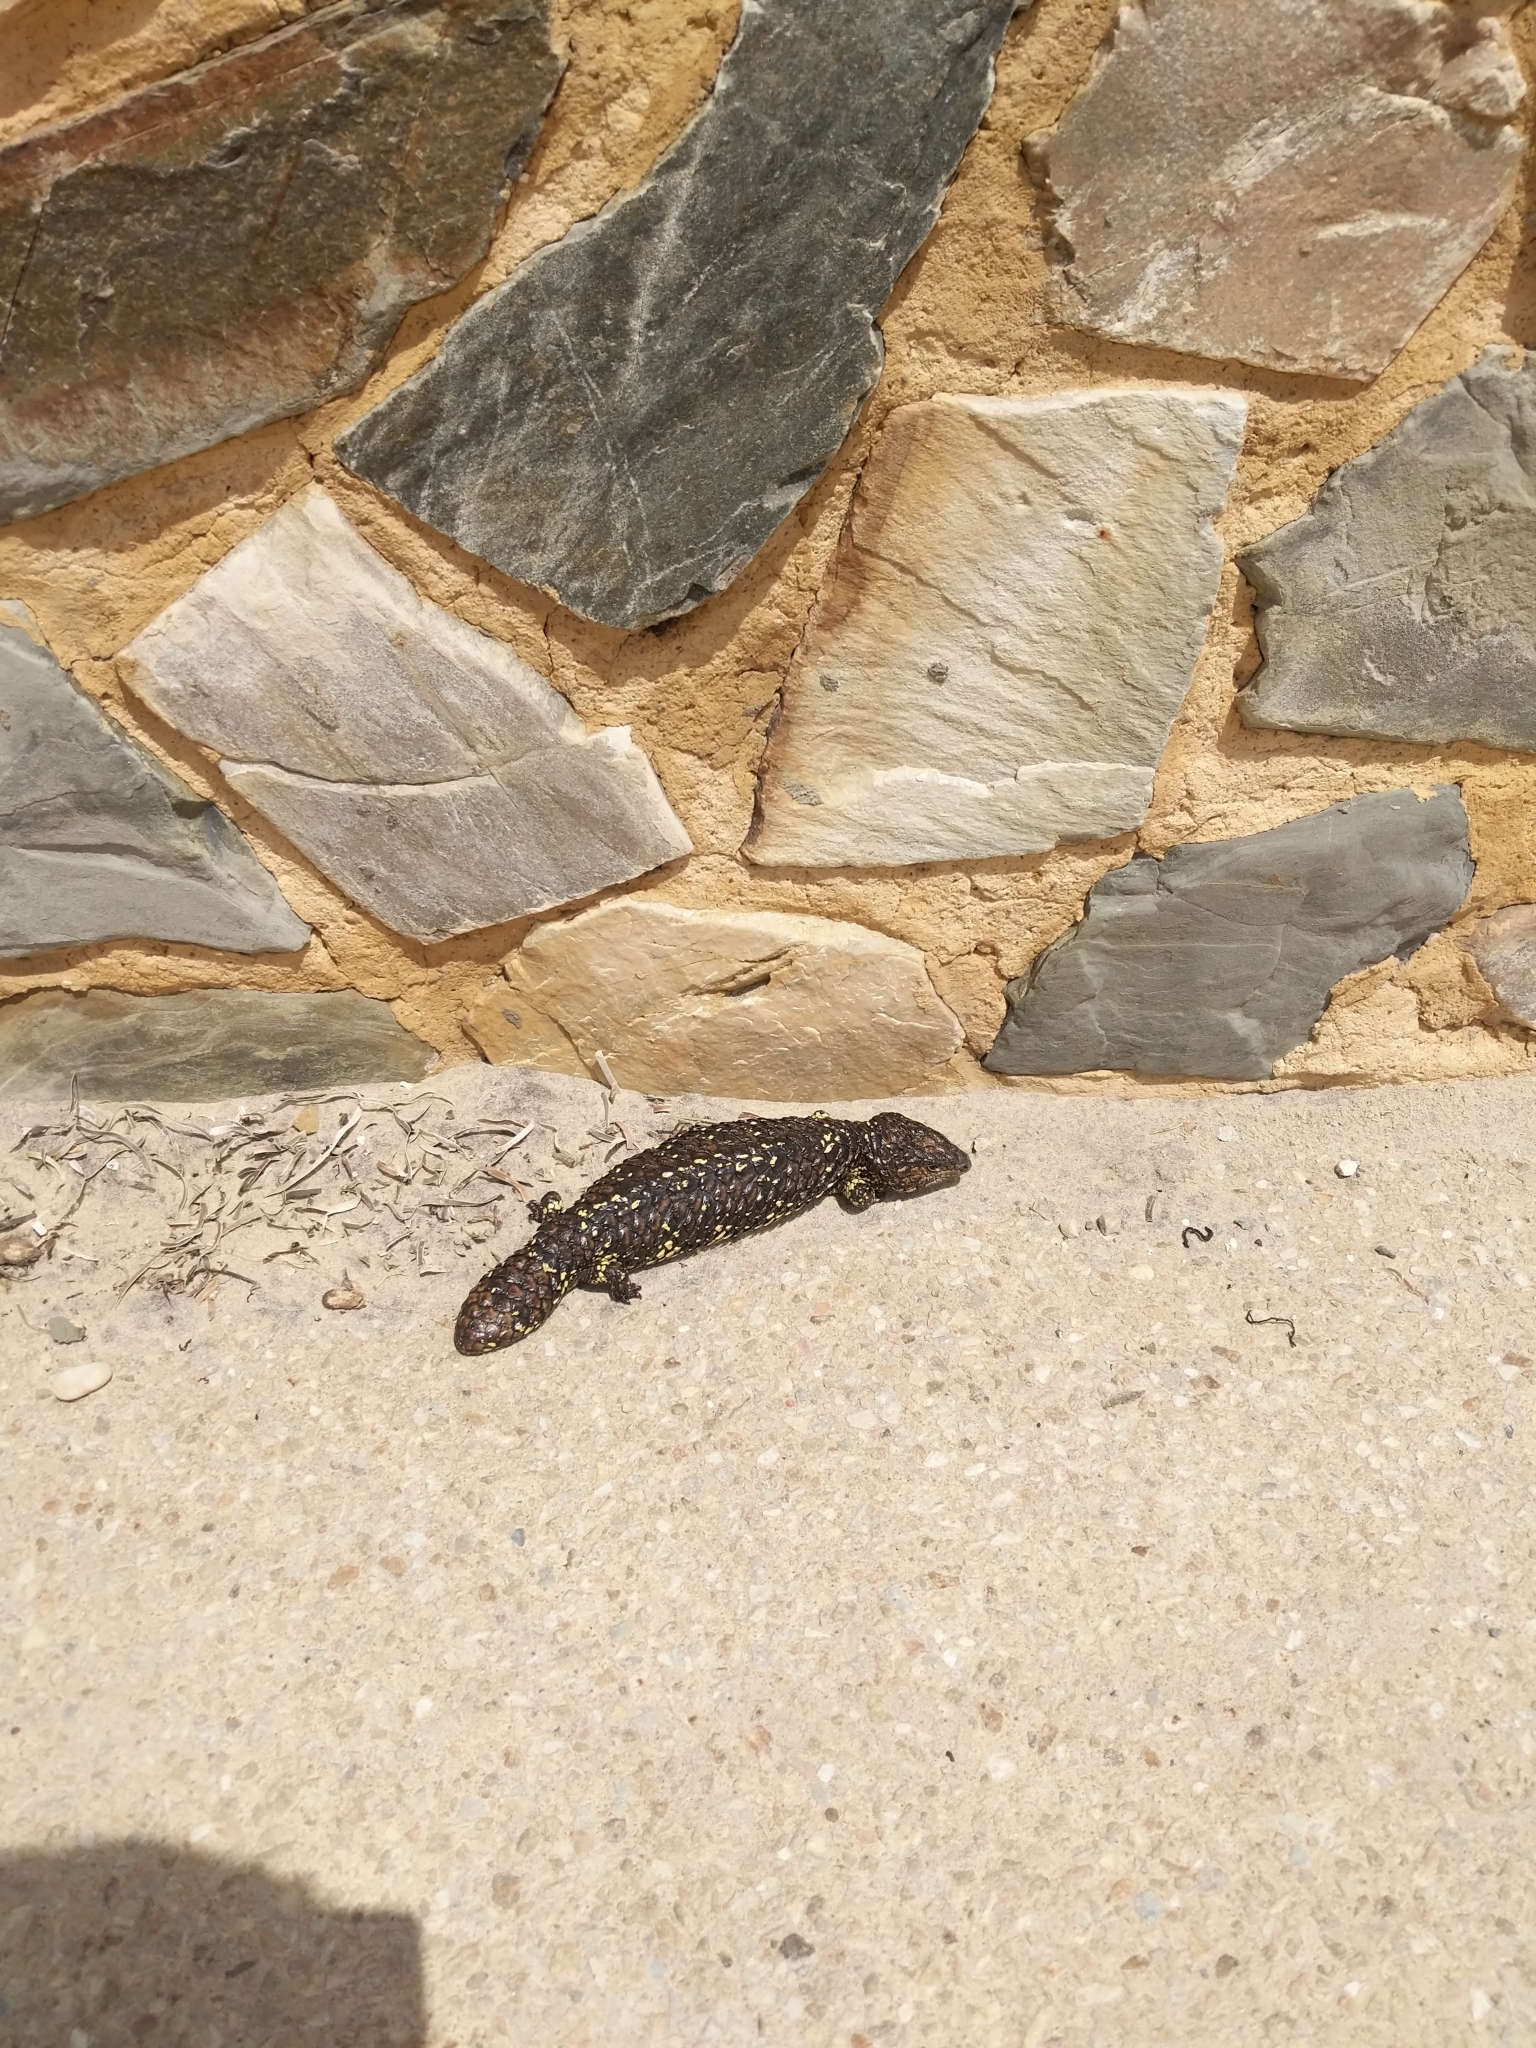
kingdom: Animalia
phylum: Chordata
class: Squamata
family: Scincidae
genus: Tiliqua
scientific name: Tiliqua rugosa
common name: Pinecone lizard
